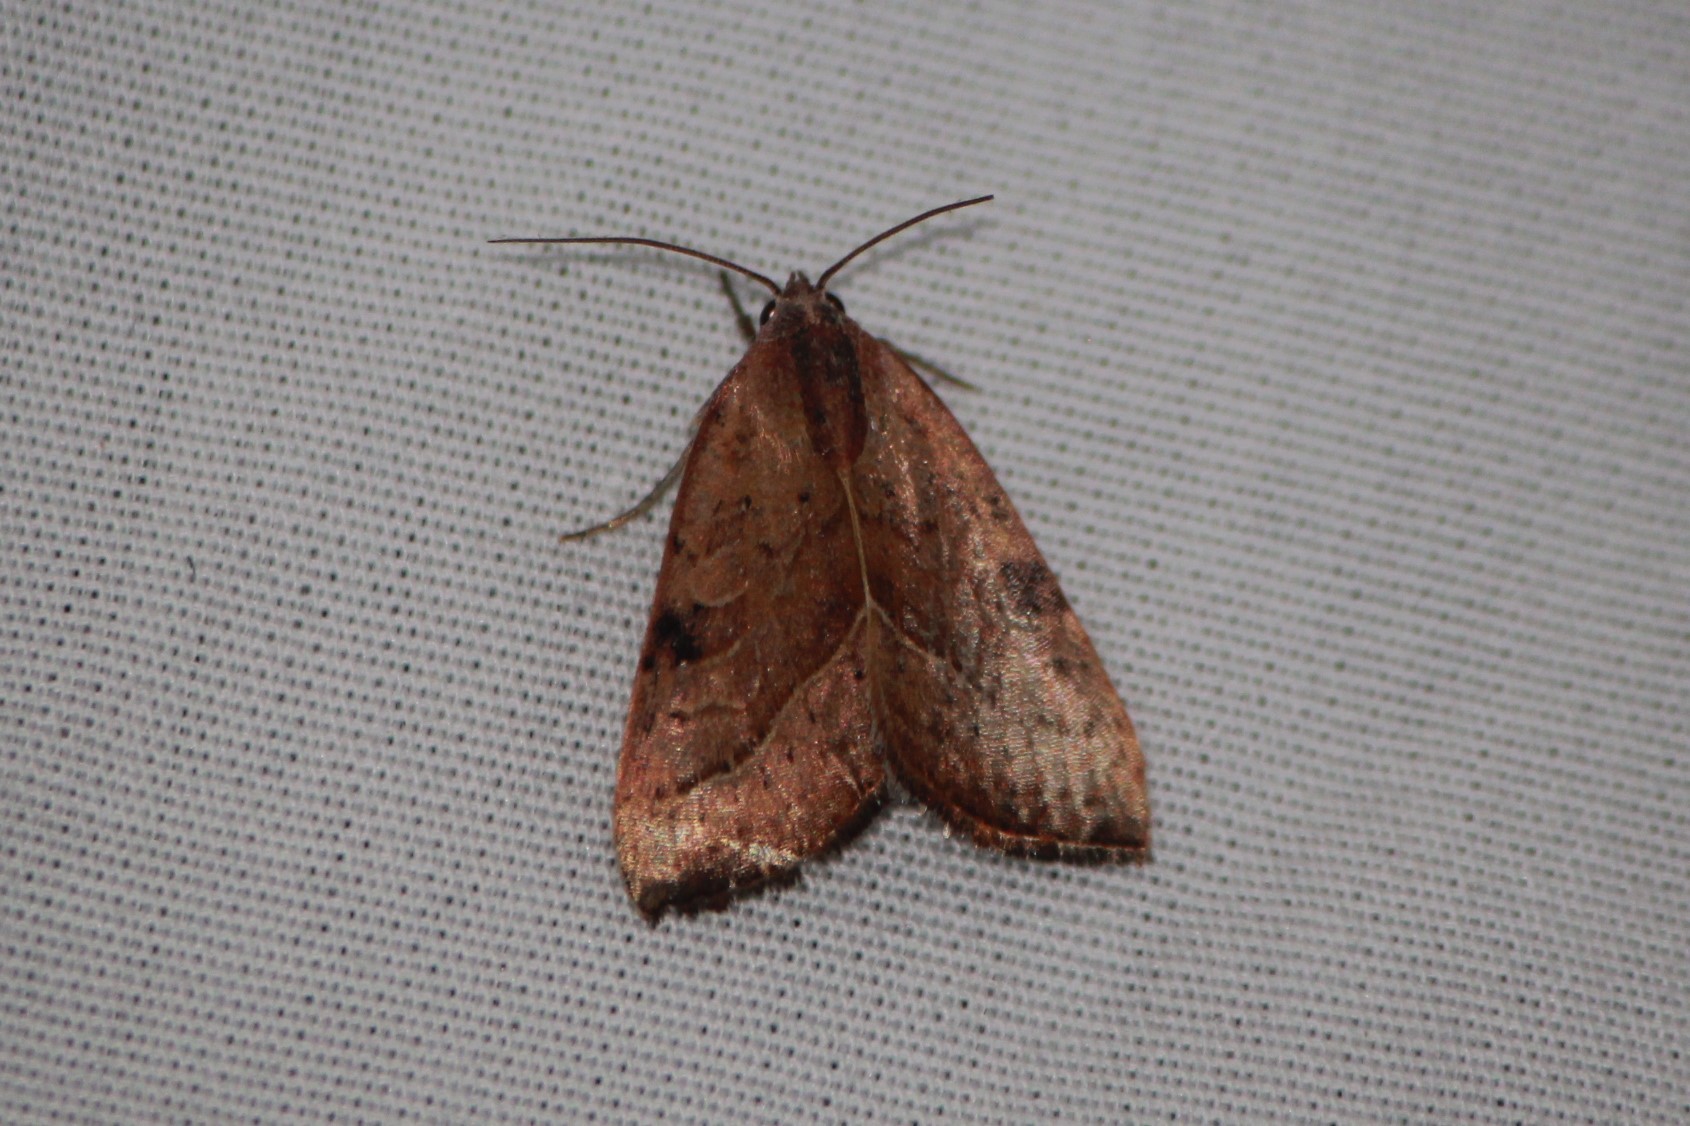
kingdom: Animalia
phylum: Arthropoda
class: Insecta
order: Lepidoptera
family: Noctuidae
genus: Galgula
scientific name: Galgula partita
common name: Wedgeling
